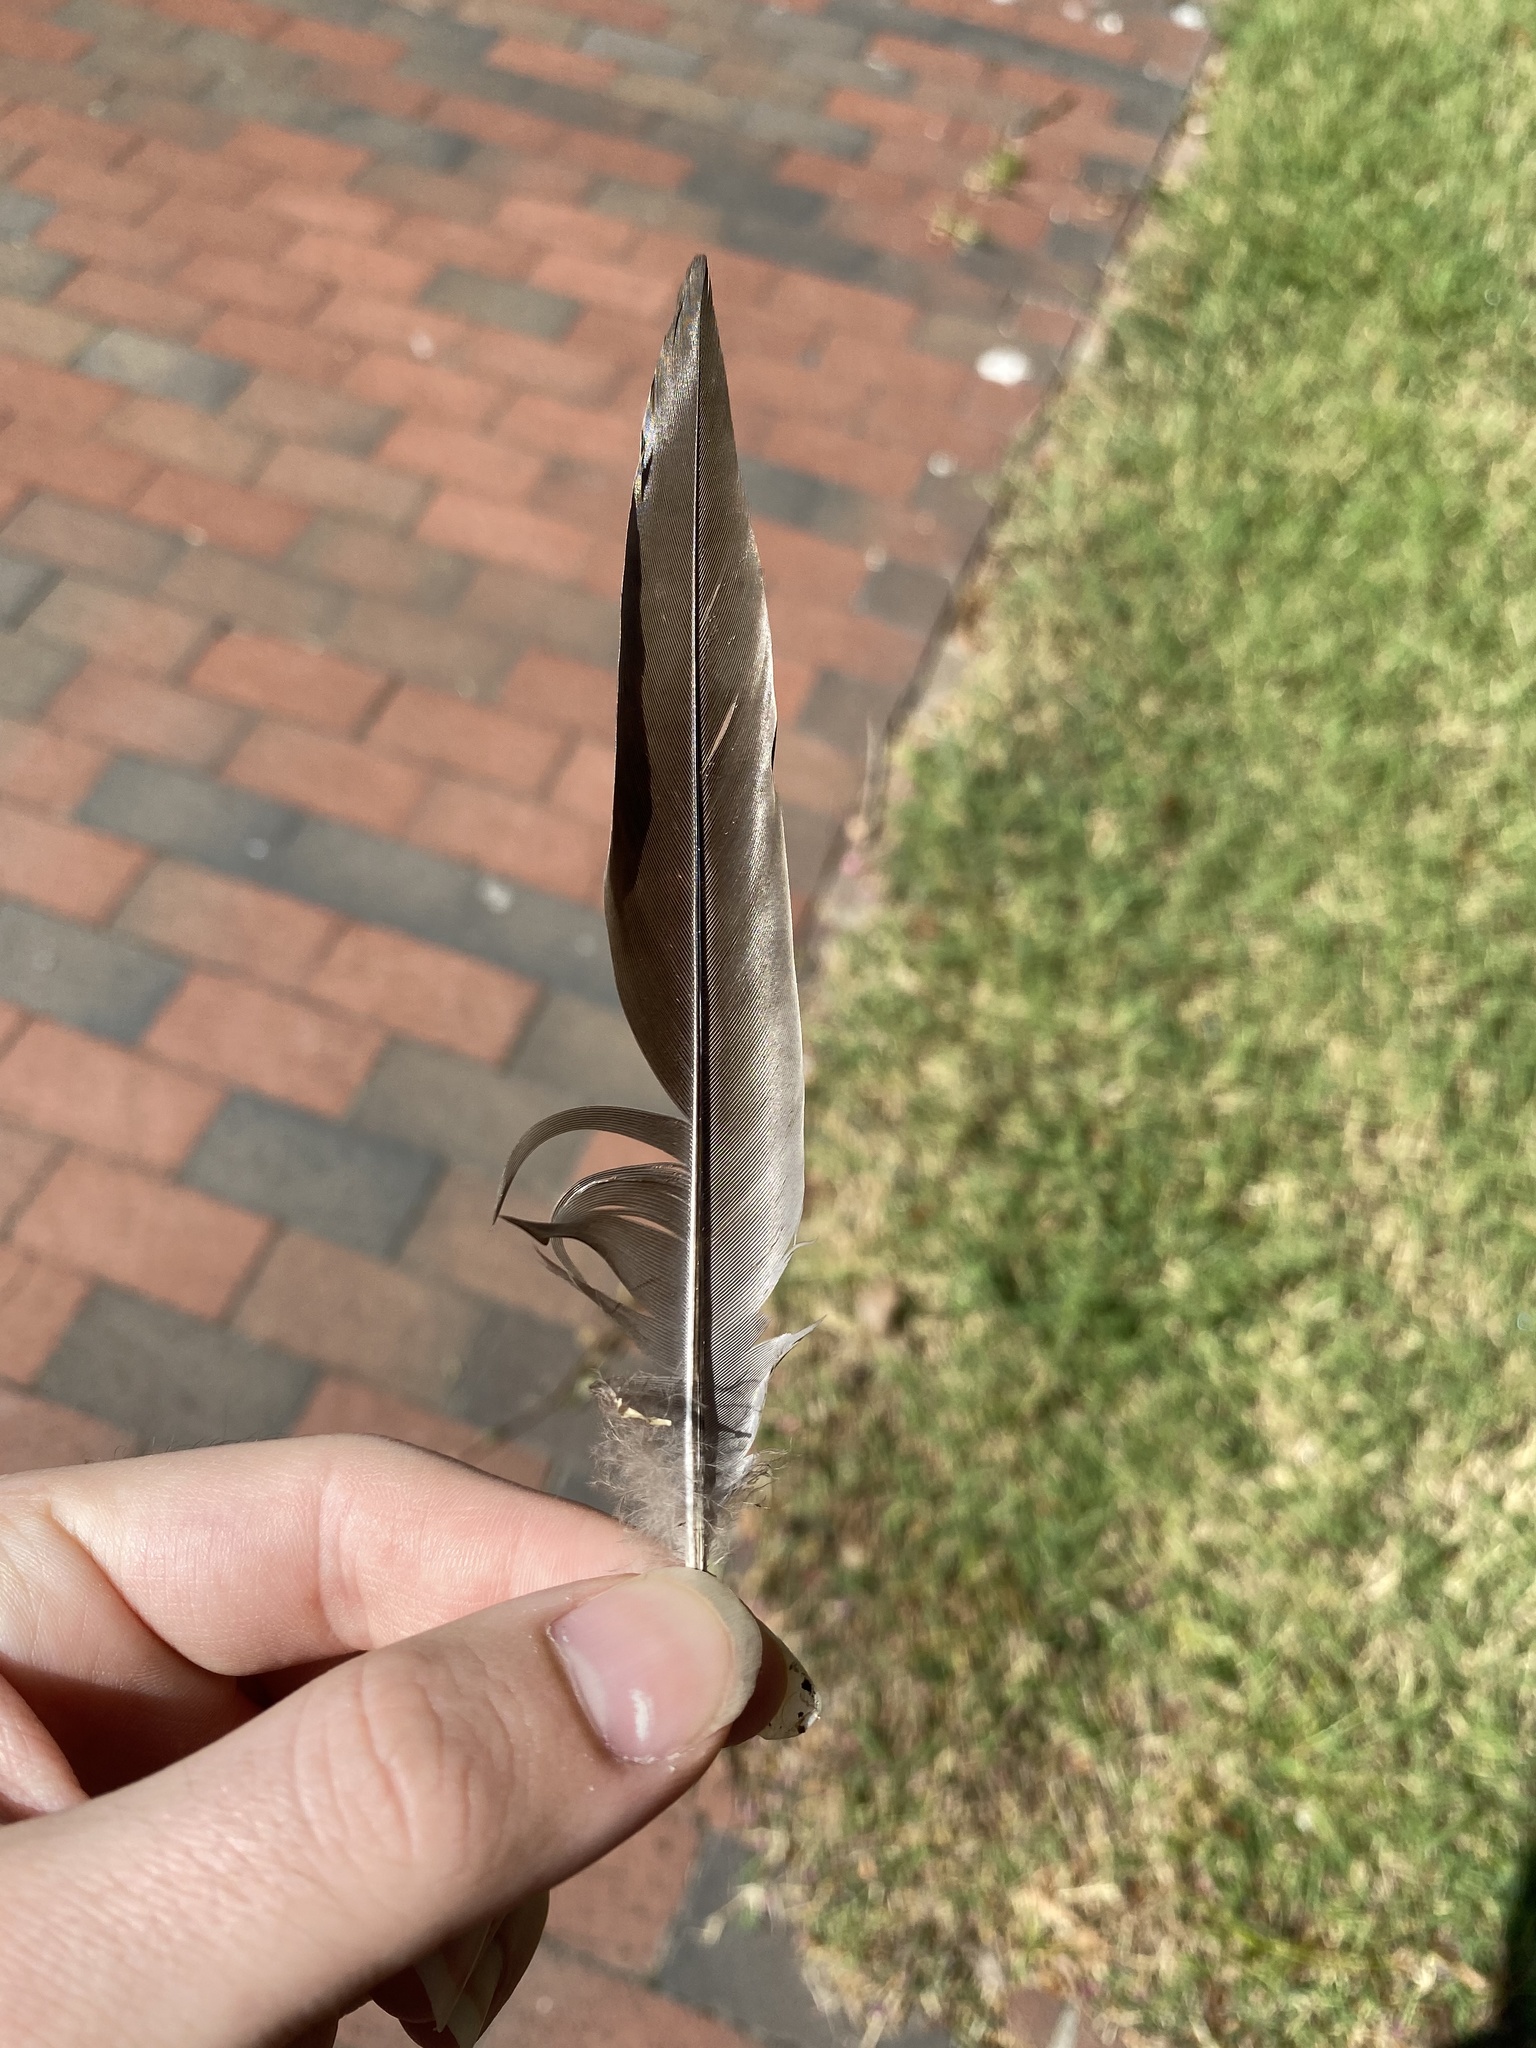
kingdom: Animalia
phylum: Chordata
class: Aves
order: Columbiformes
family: Columbidae
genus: Zenaida
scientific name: Zenaida macroura
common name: Mourning dove
